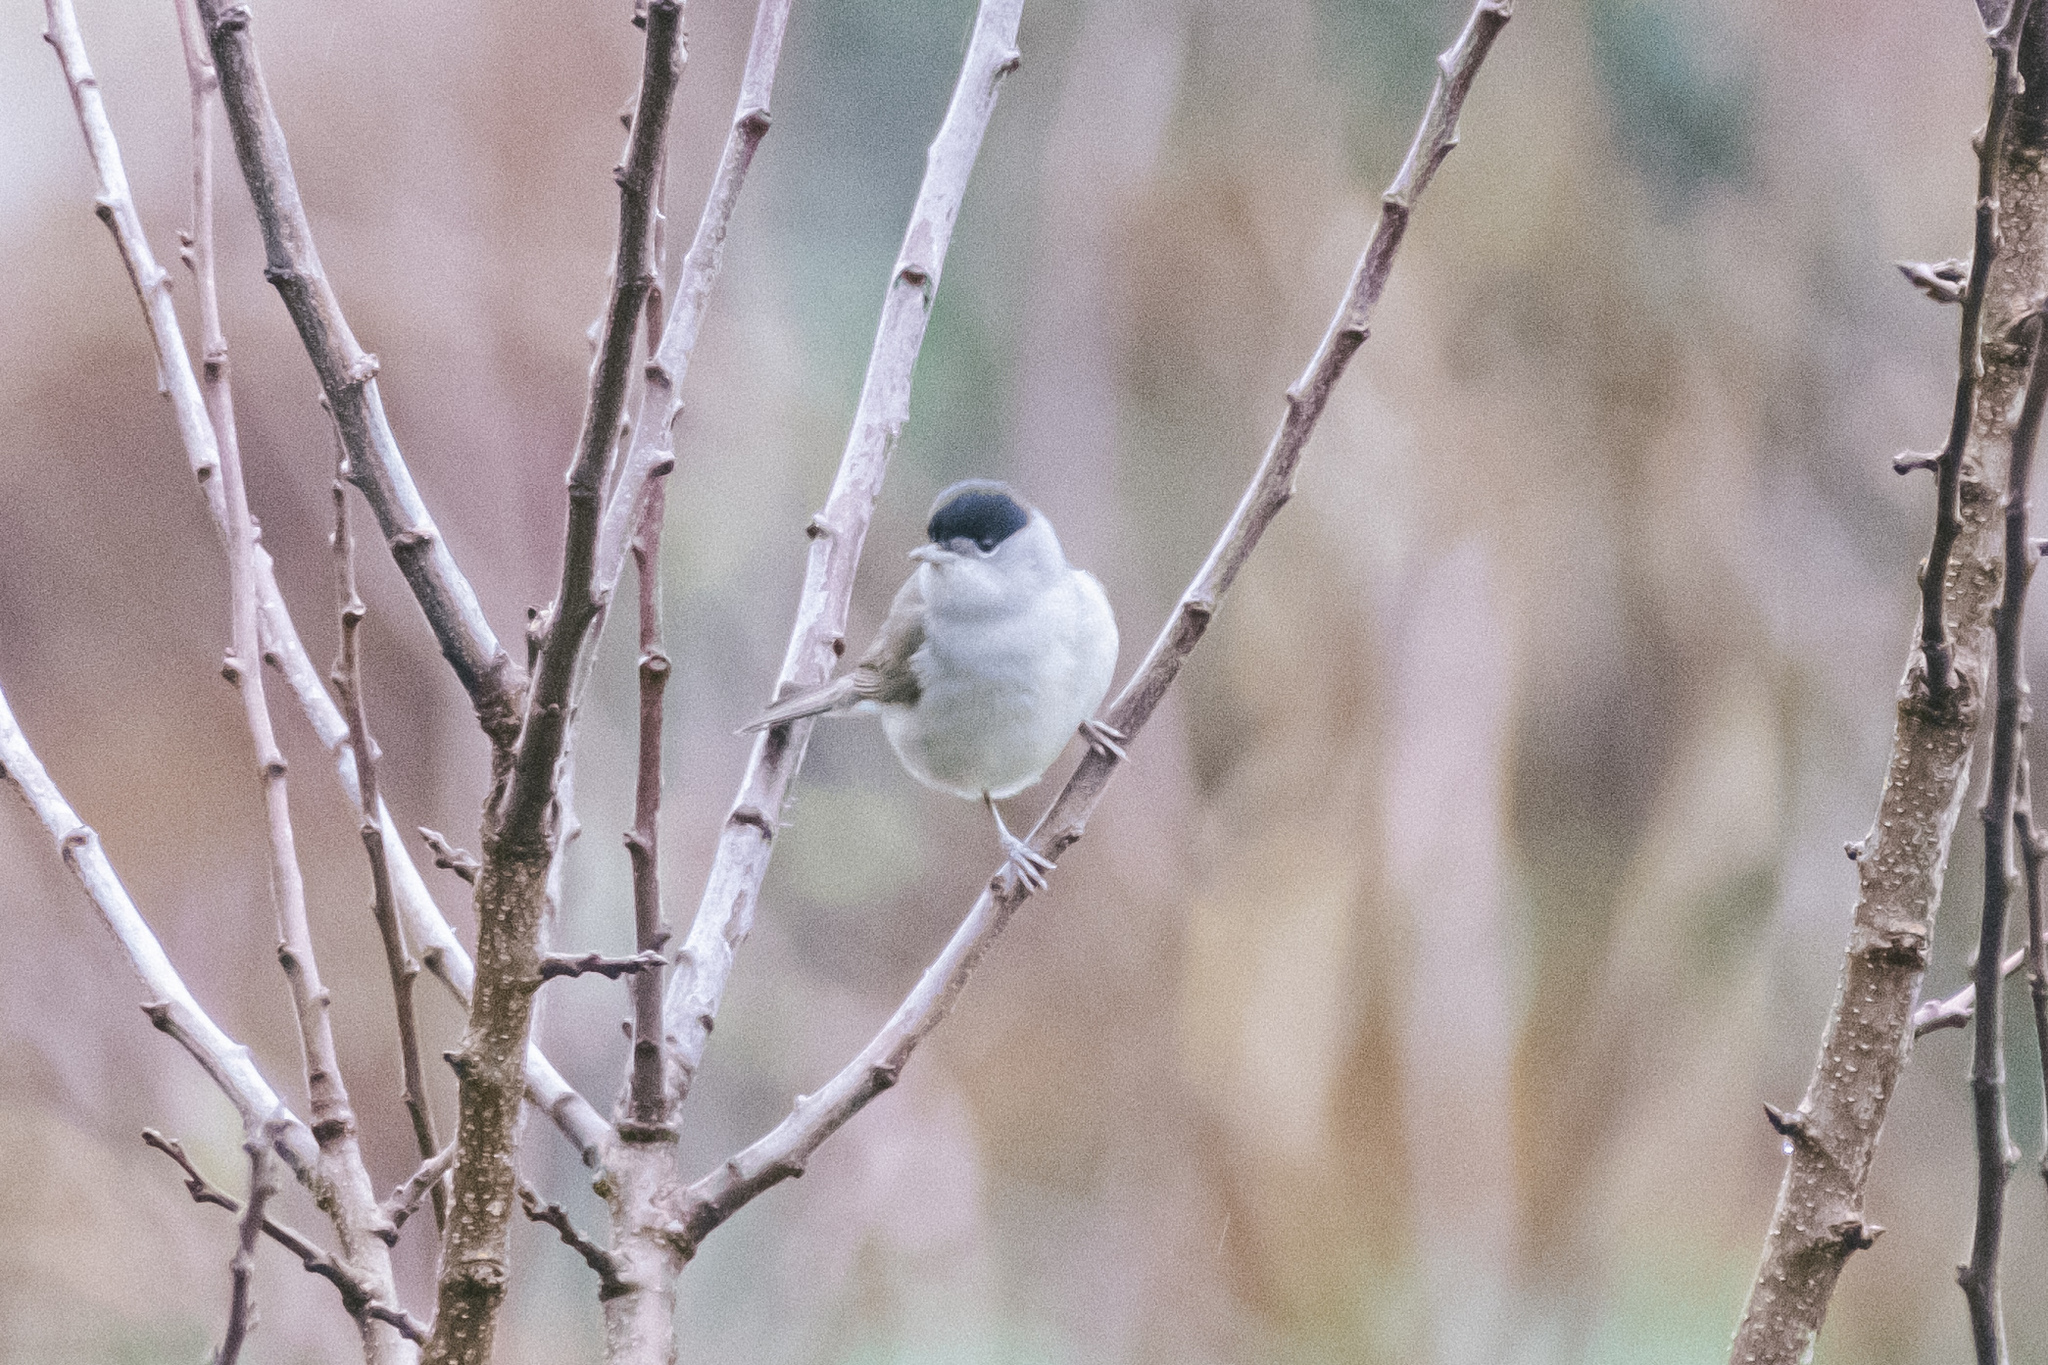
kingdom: Animalia
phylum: Chordata
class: Aves
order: Passeriformes
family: Sylviidae
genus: Sylvia
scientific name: Sylvia atricapilla
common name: Eurasian blackcap
